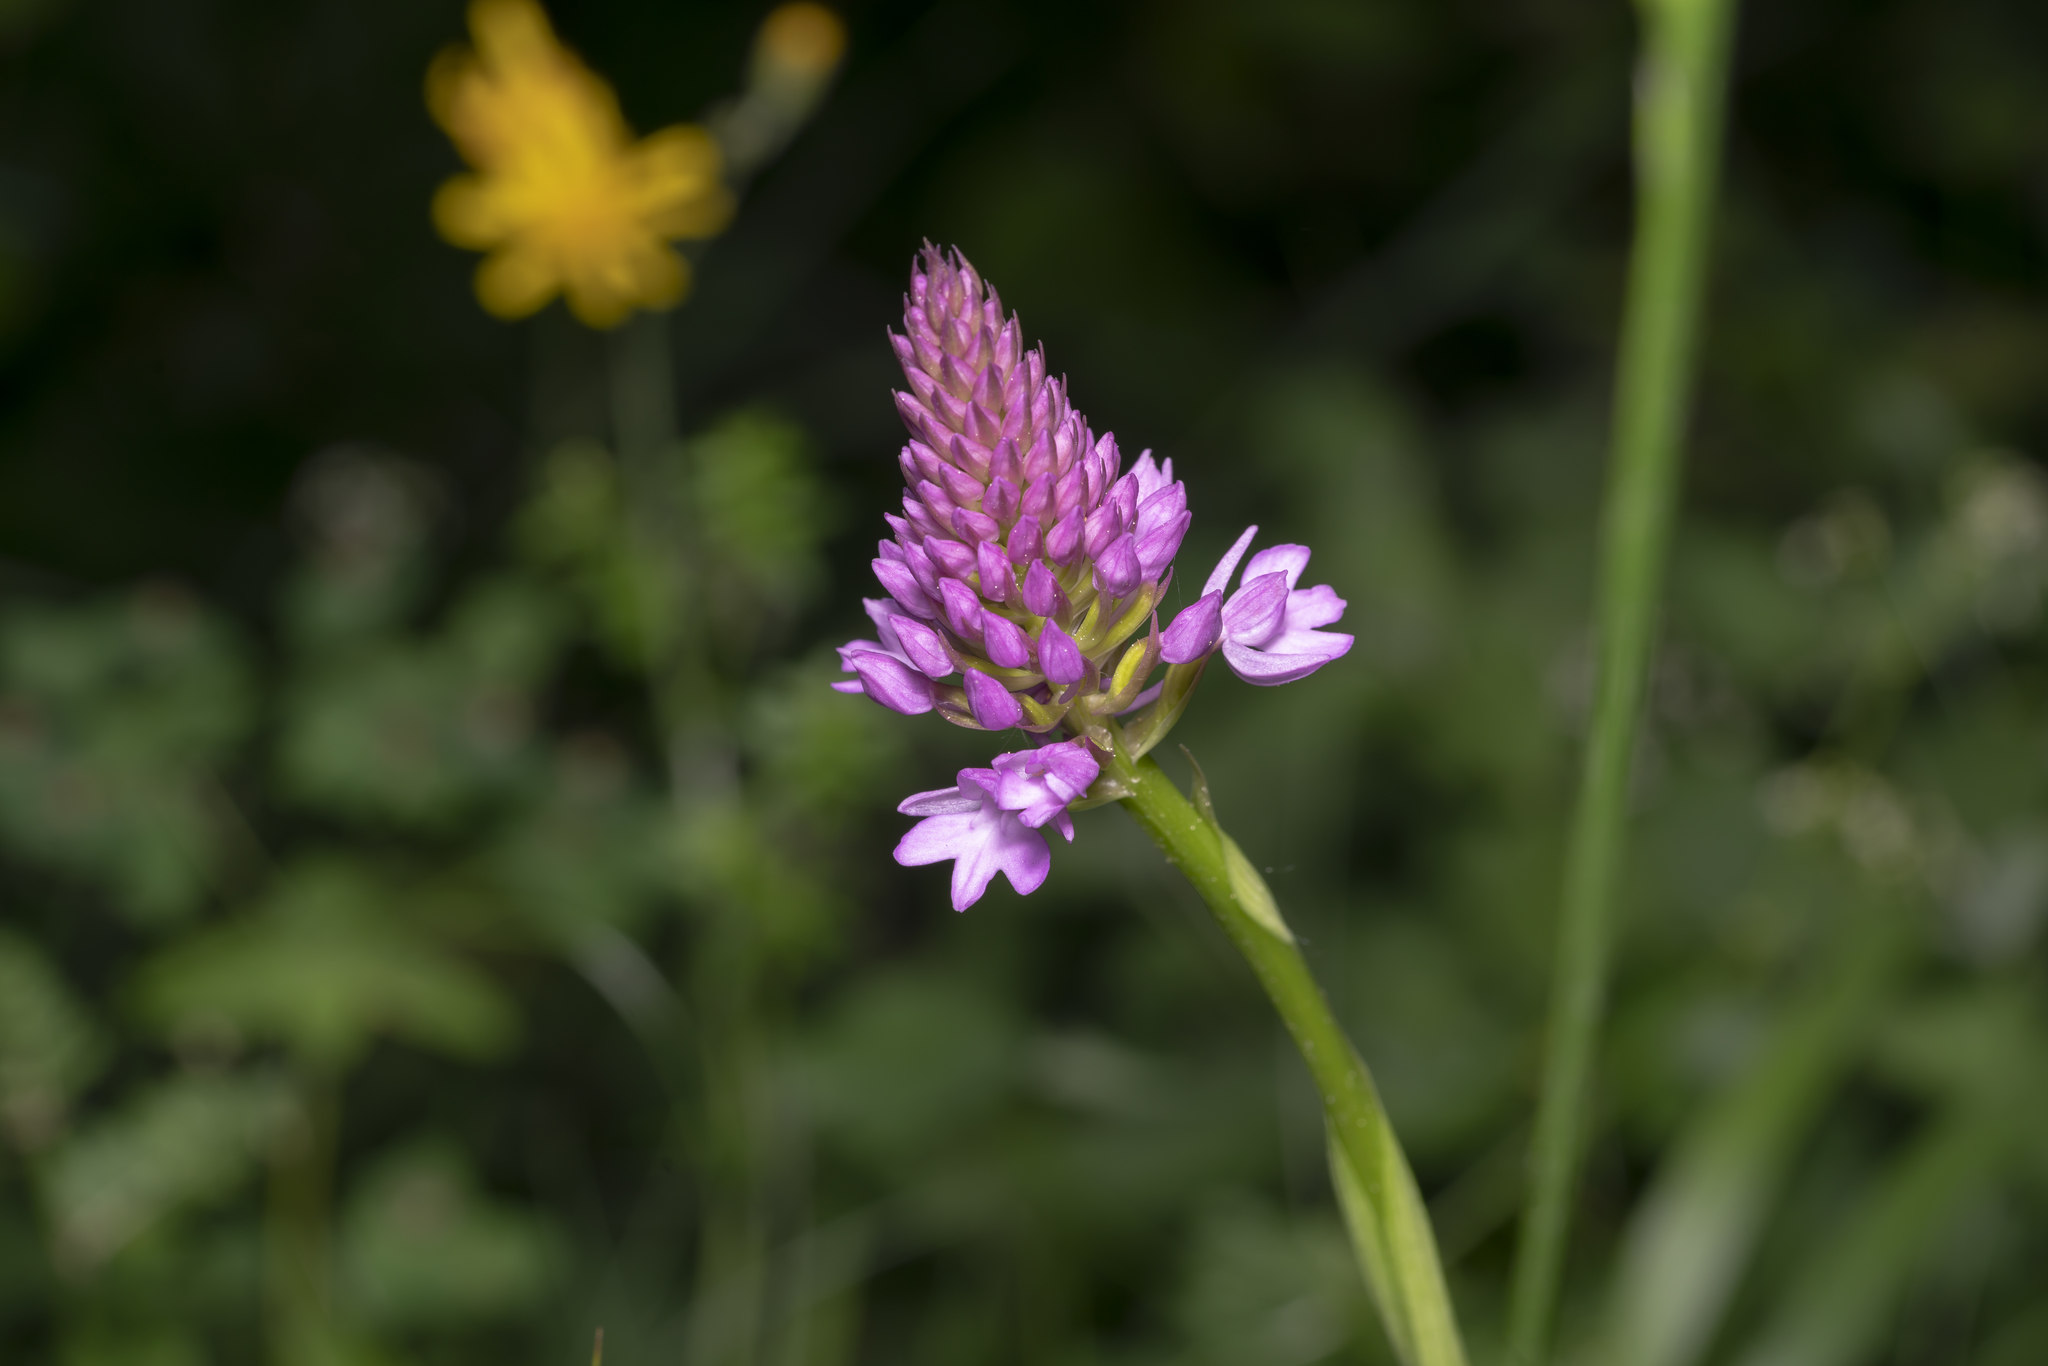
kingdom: Plantae
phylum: Tracheophyta
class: Liliopsida
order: Asparagales
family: Orchidaceae
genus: Anacamptis
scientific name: Anacamptis pyramidalis
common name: Pyramidal orchid
